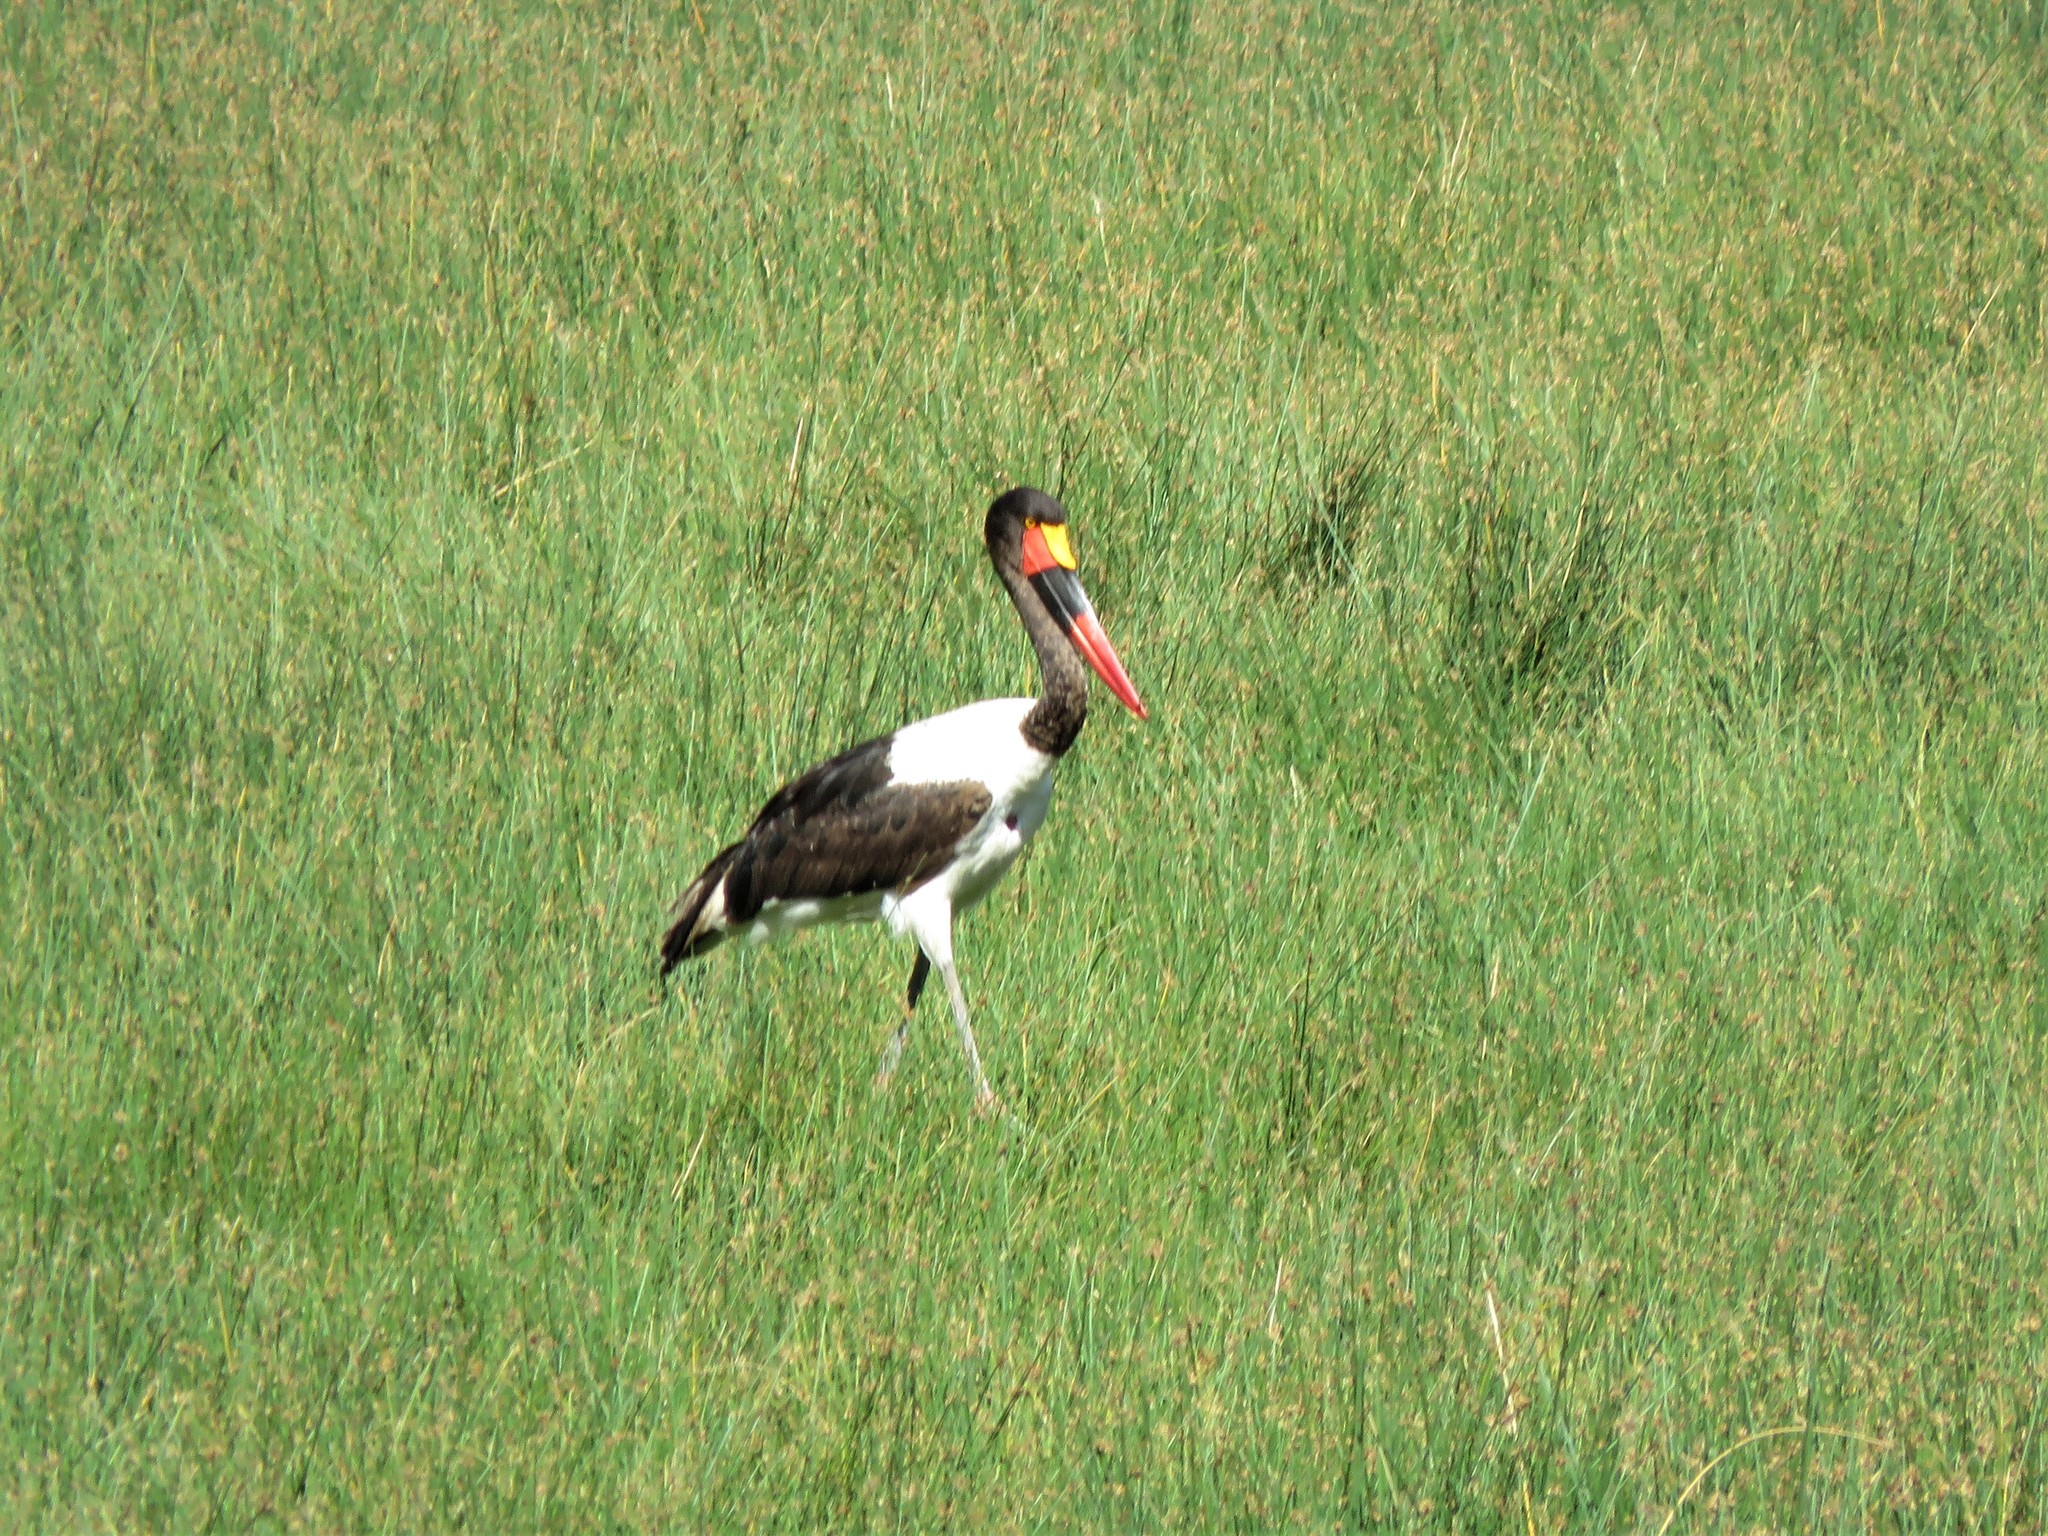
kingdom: Animalia
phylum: Chordata
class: Aves
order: Ciconiiformes
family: Ciconiidae
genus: Ephippiorhynchus
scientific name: Ephippiorhynchus senegalensis
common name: Saddle-billed stork
